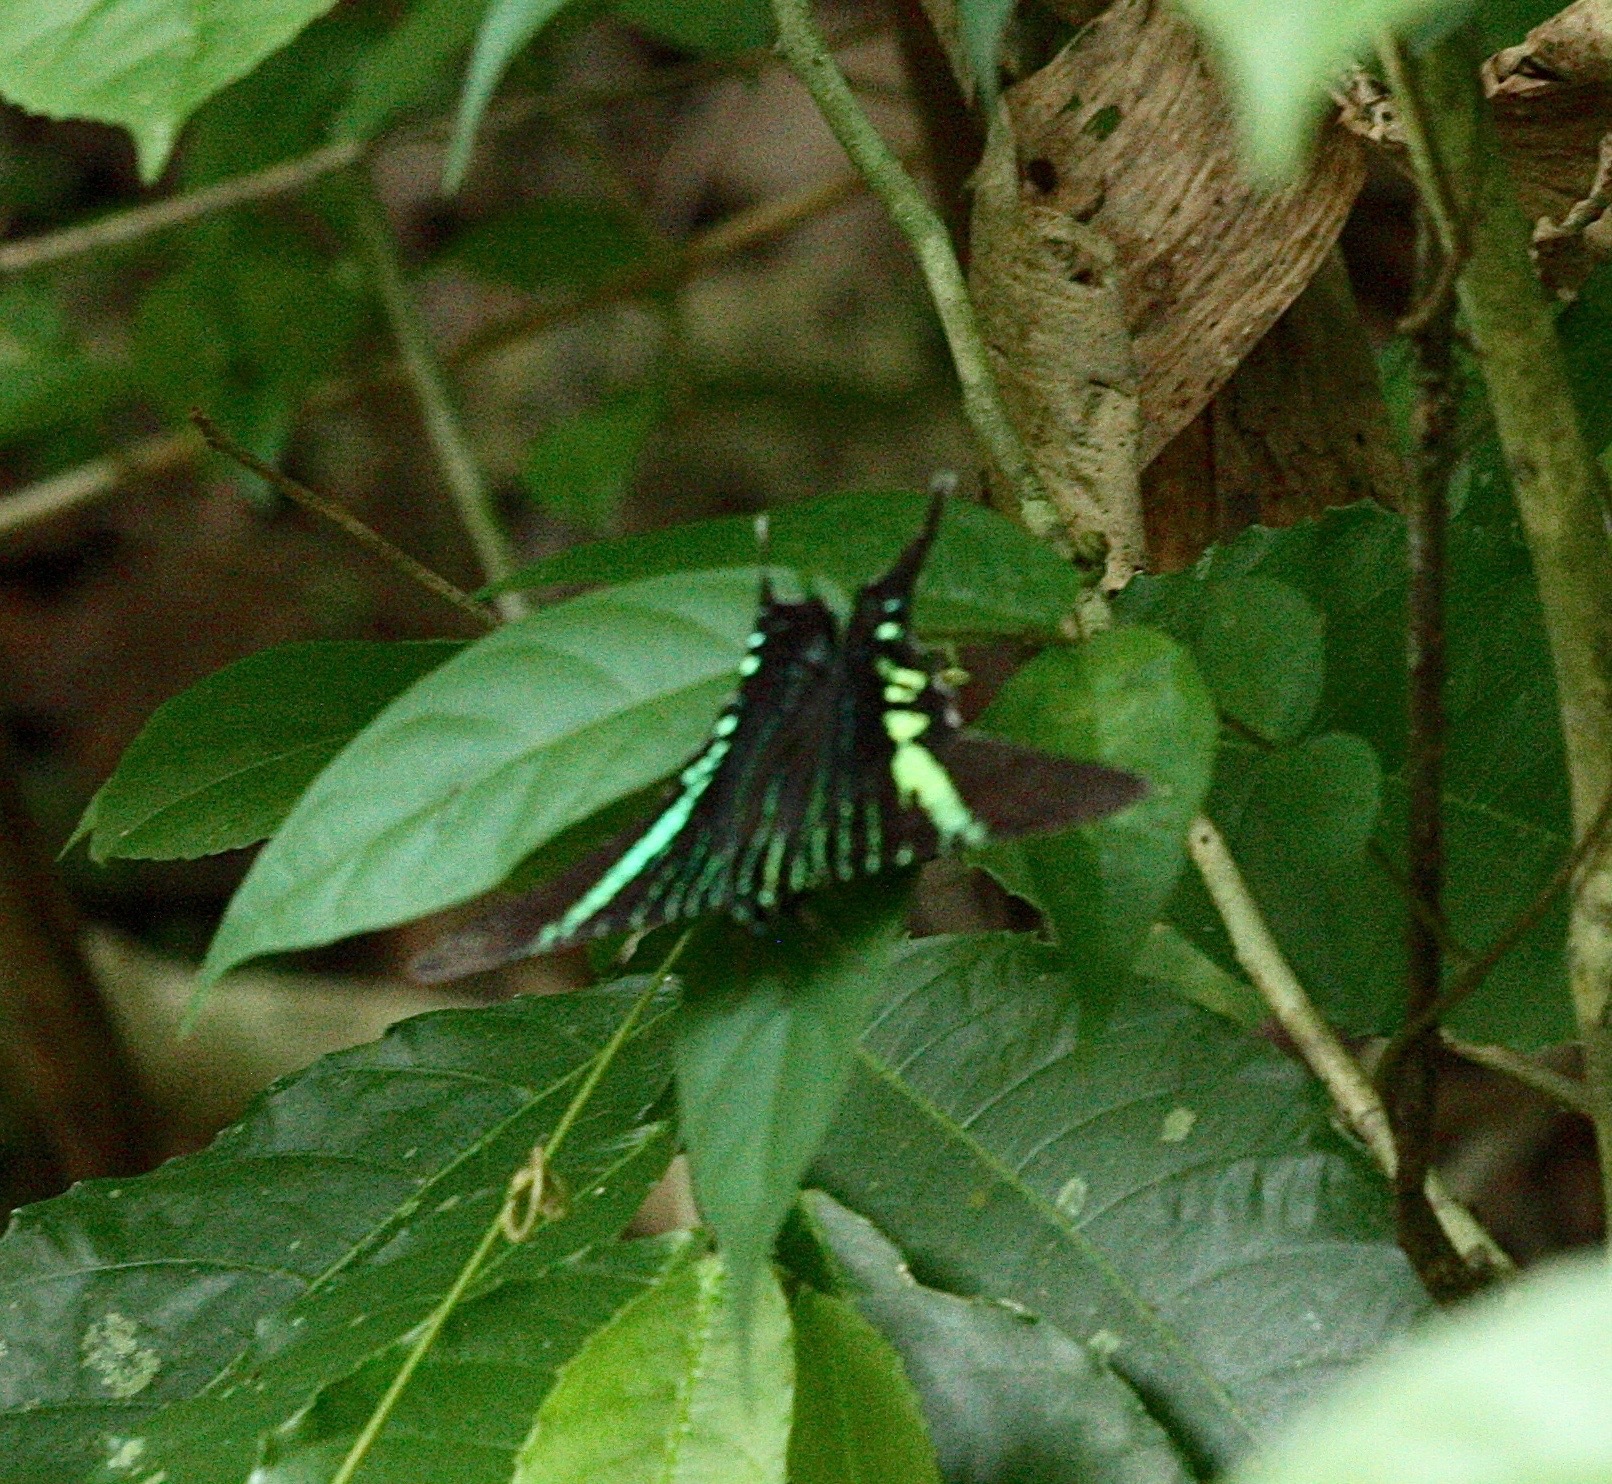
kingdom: Animalia
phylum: Arthropoda
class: Insecta
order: Lepidoptera
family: Uraniidae
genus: Urania
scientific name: Urania fulgens
